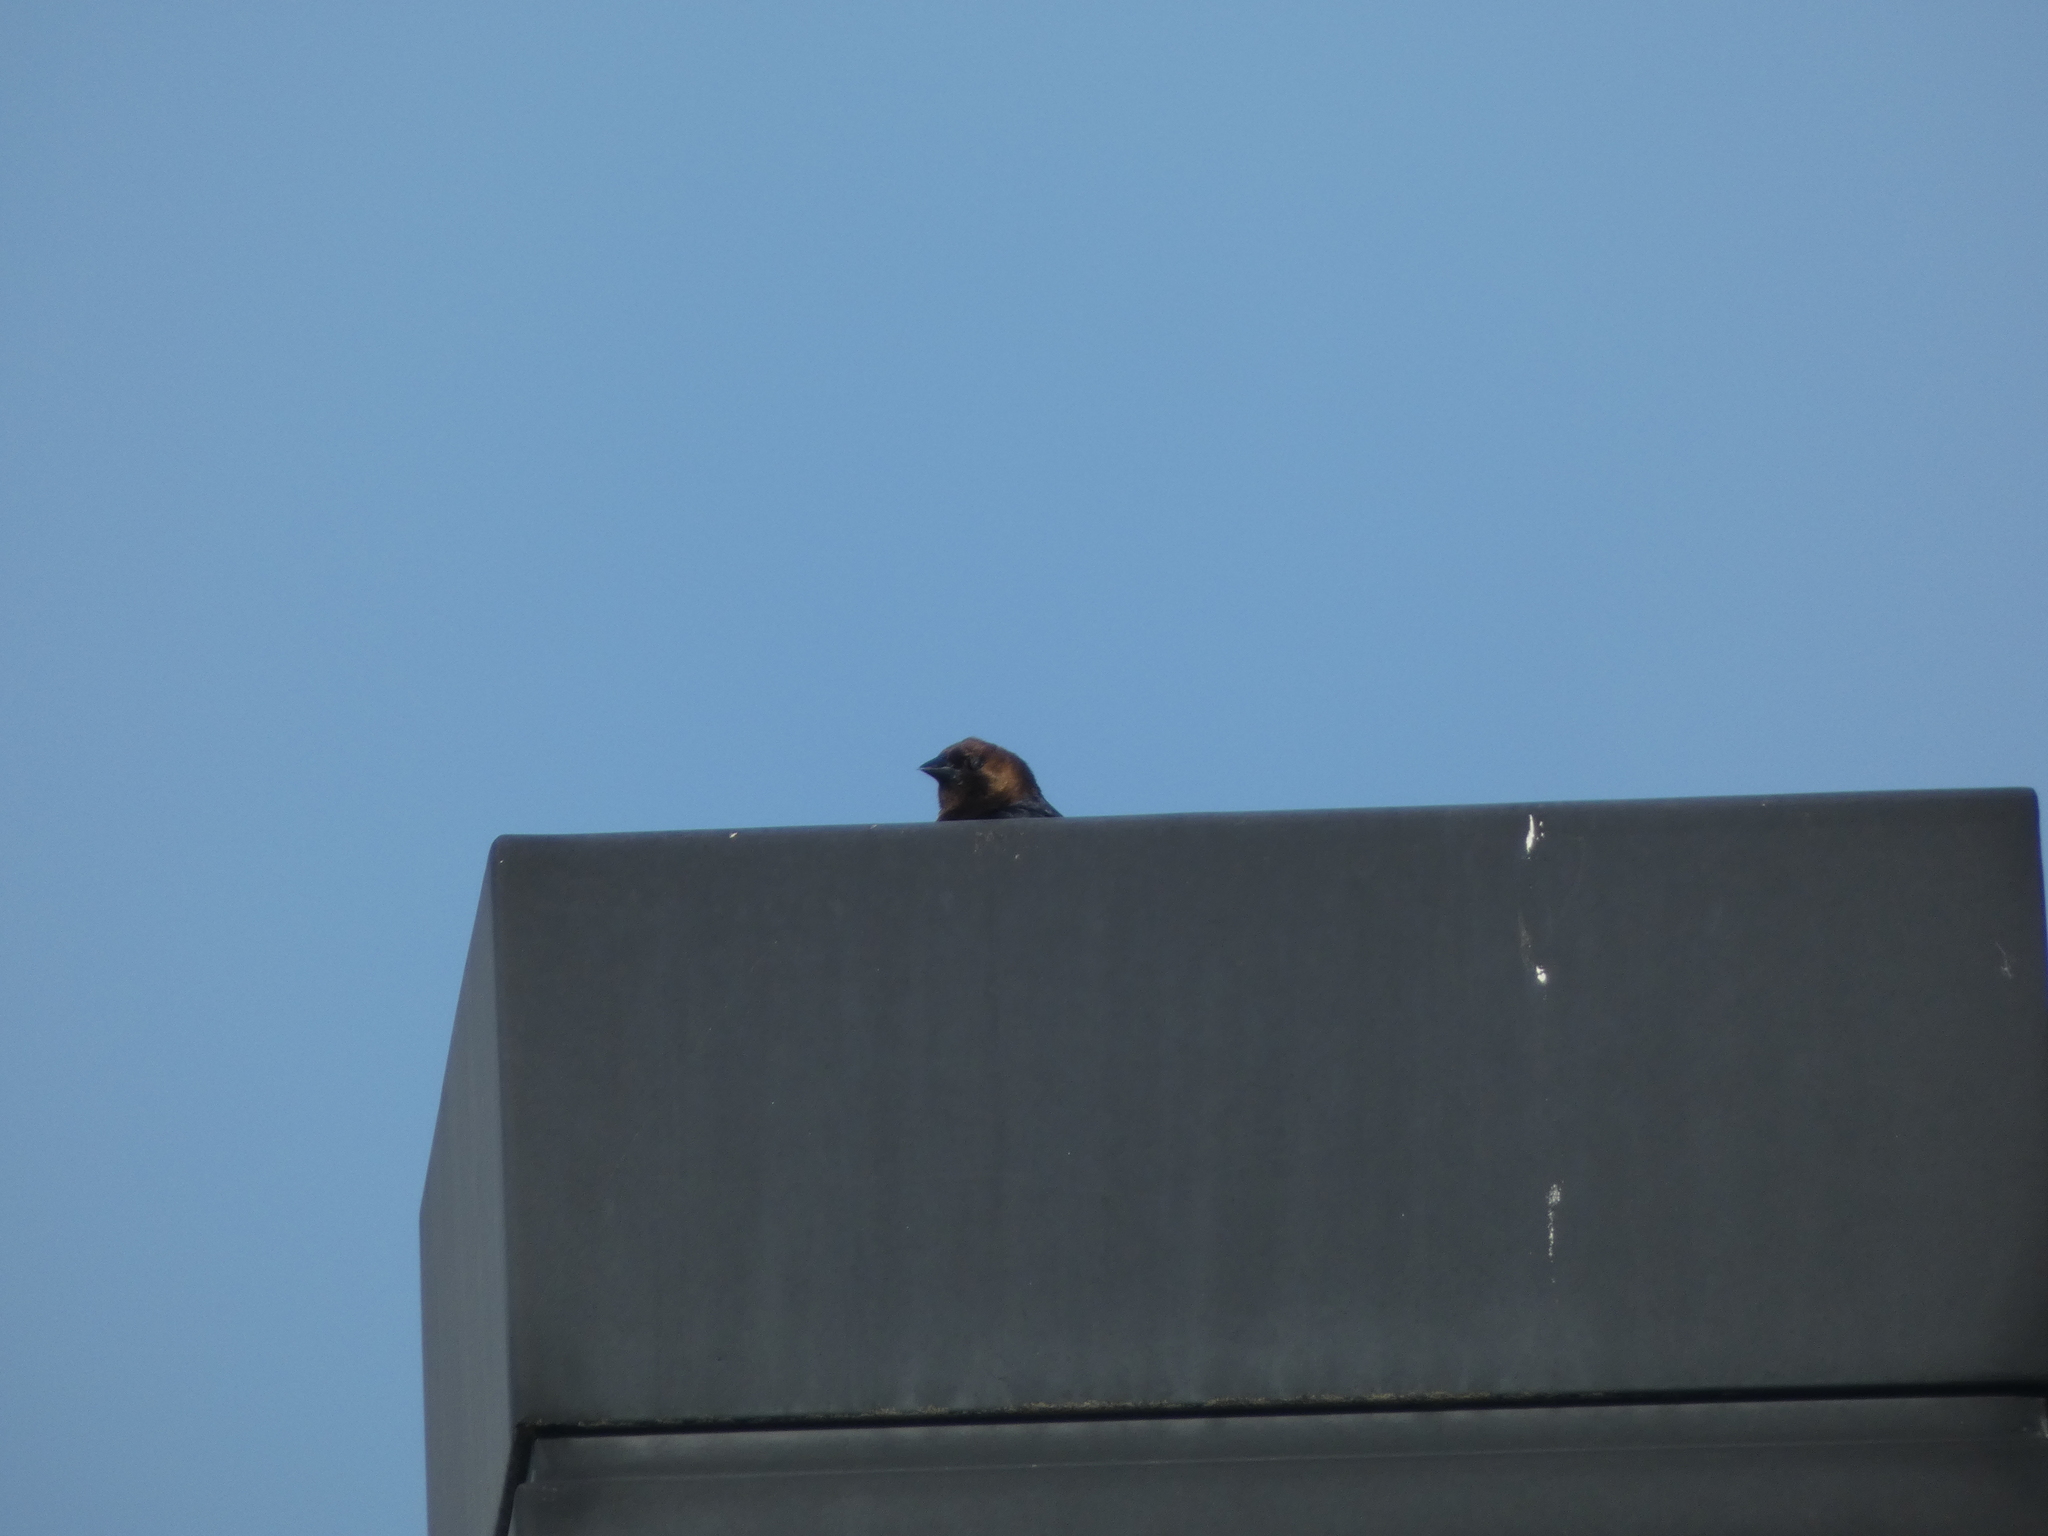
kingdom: Animalia
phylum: Chordata
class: Aves
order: Passeriformes
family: Icteridae
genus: Molothrus
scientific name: Molothrus ater
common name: Brown-headed cowbird
